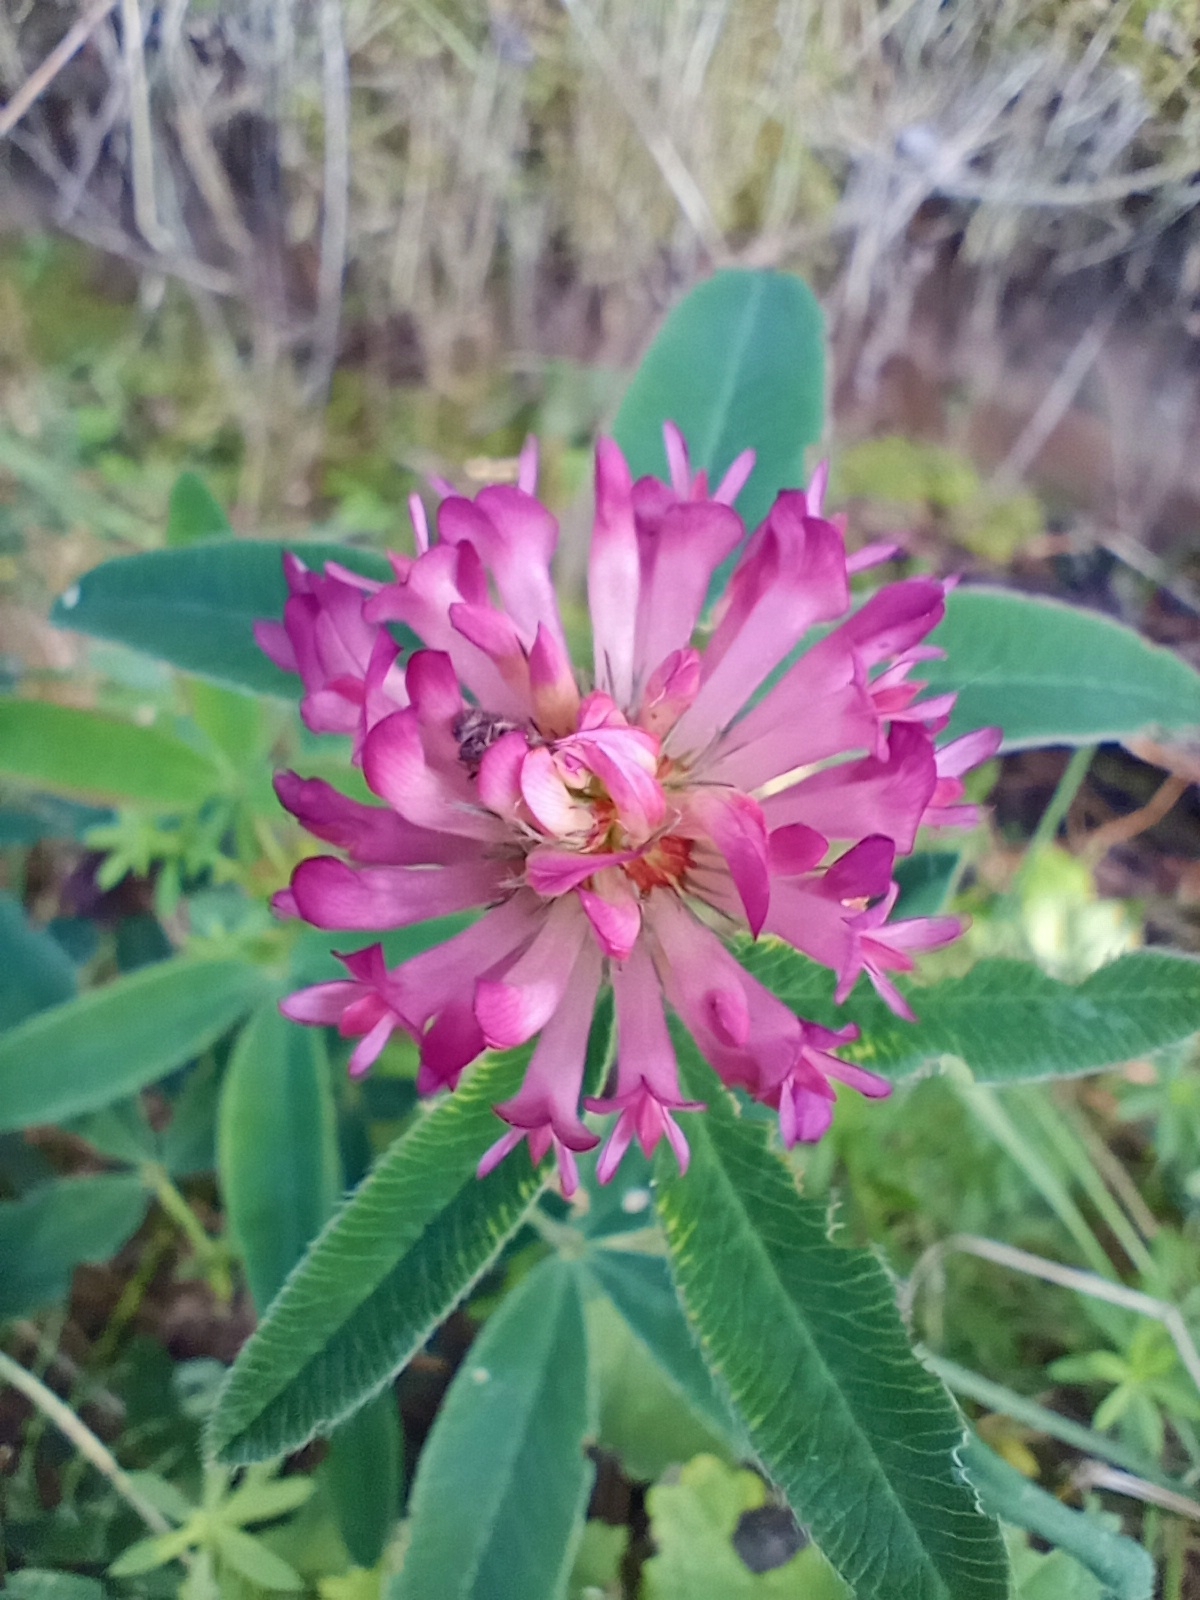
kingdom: Plantae
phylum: Tracheophyta
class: Magnoliopsida
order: Fabales
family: Fabaceae
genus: Trifolium
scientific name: Trifolium medium
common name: Zigzag clover
